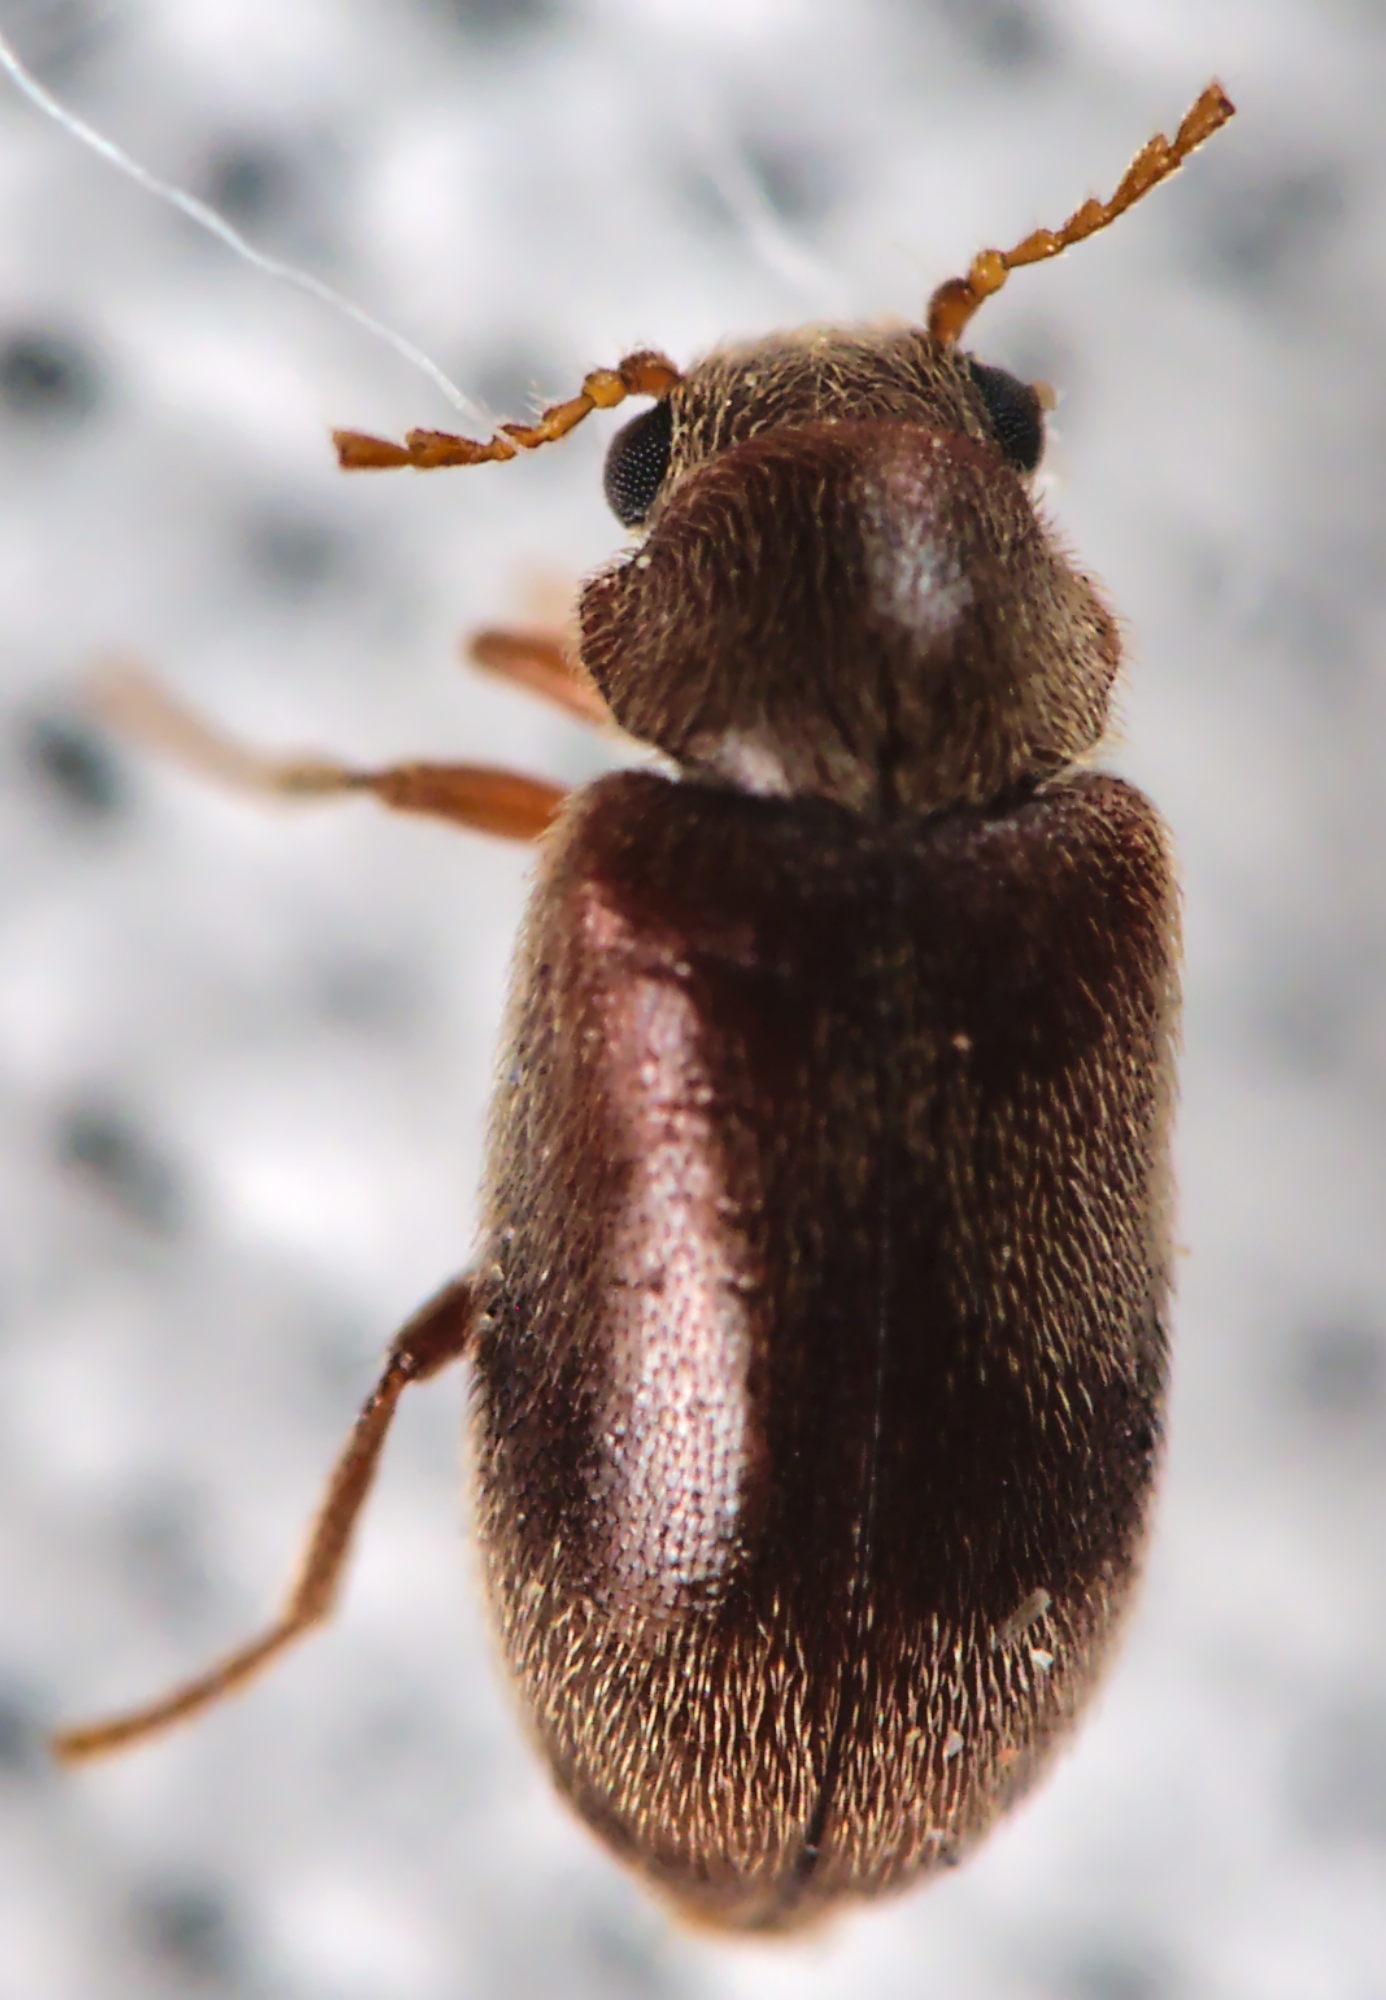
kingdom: Animalia
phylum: Arthropoda
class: Insecta
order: Coleoptera
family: Ptinidae
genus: Ochina
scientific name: Ochina ptinoides
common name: Ivy boring beetle
